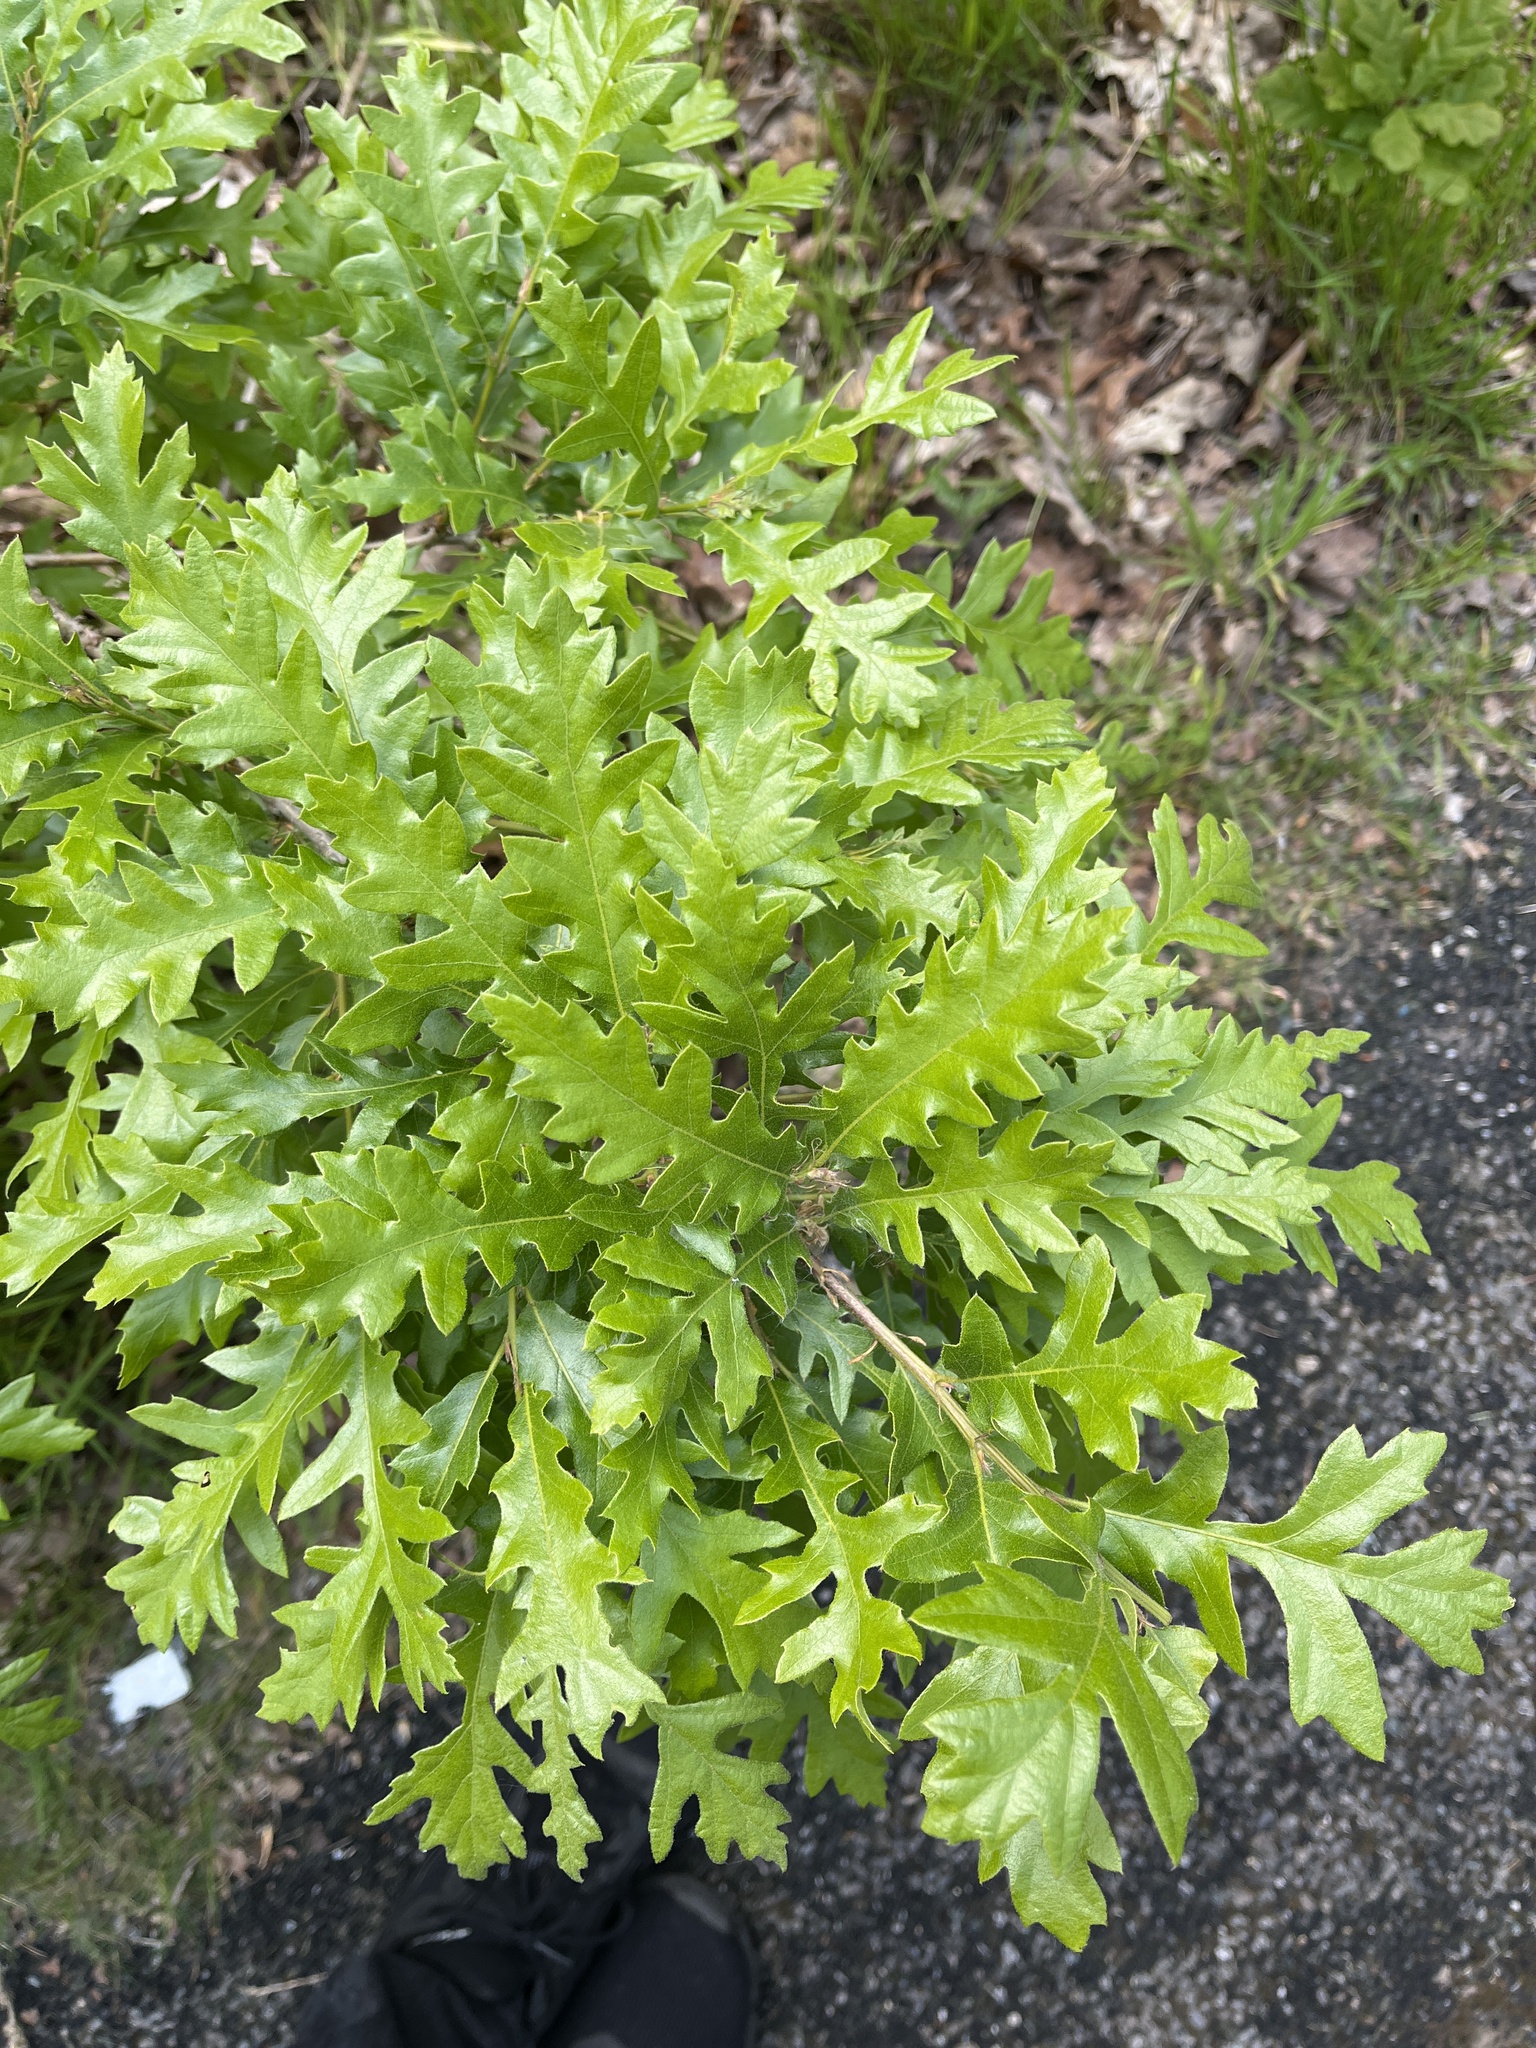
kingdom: Plantae
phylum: Tracheophyta
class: Magnoliopsida
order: Fagales
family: Fagaceae
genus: Quercus
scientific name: Quercus cerris
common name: Turkey oak
